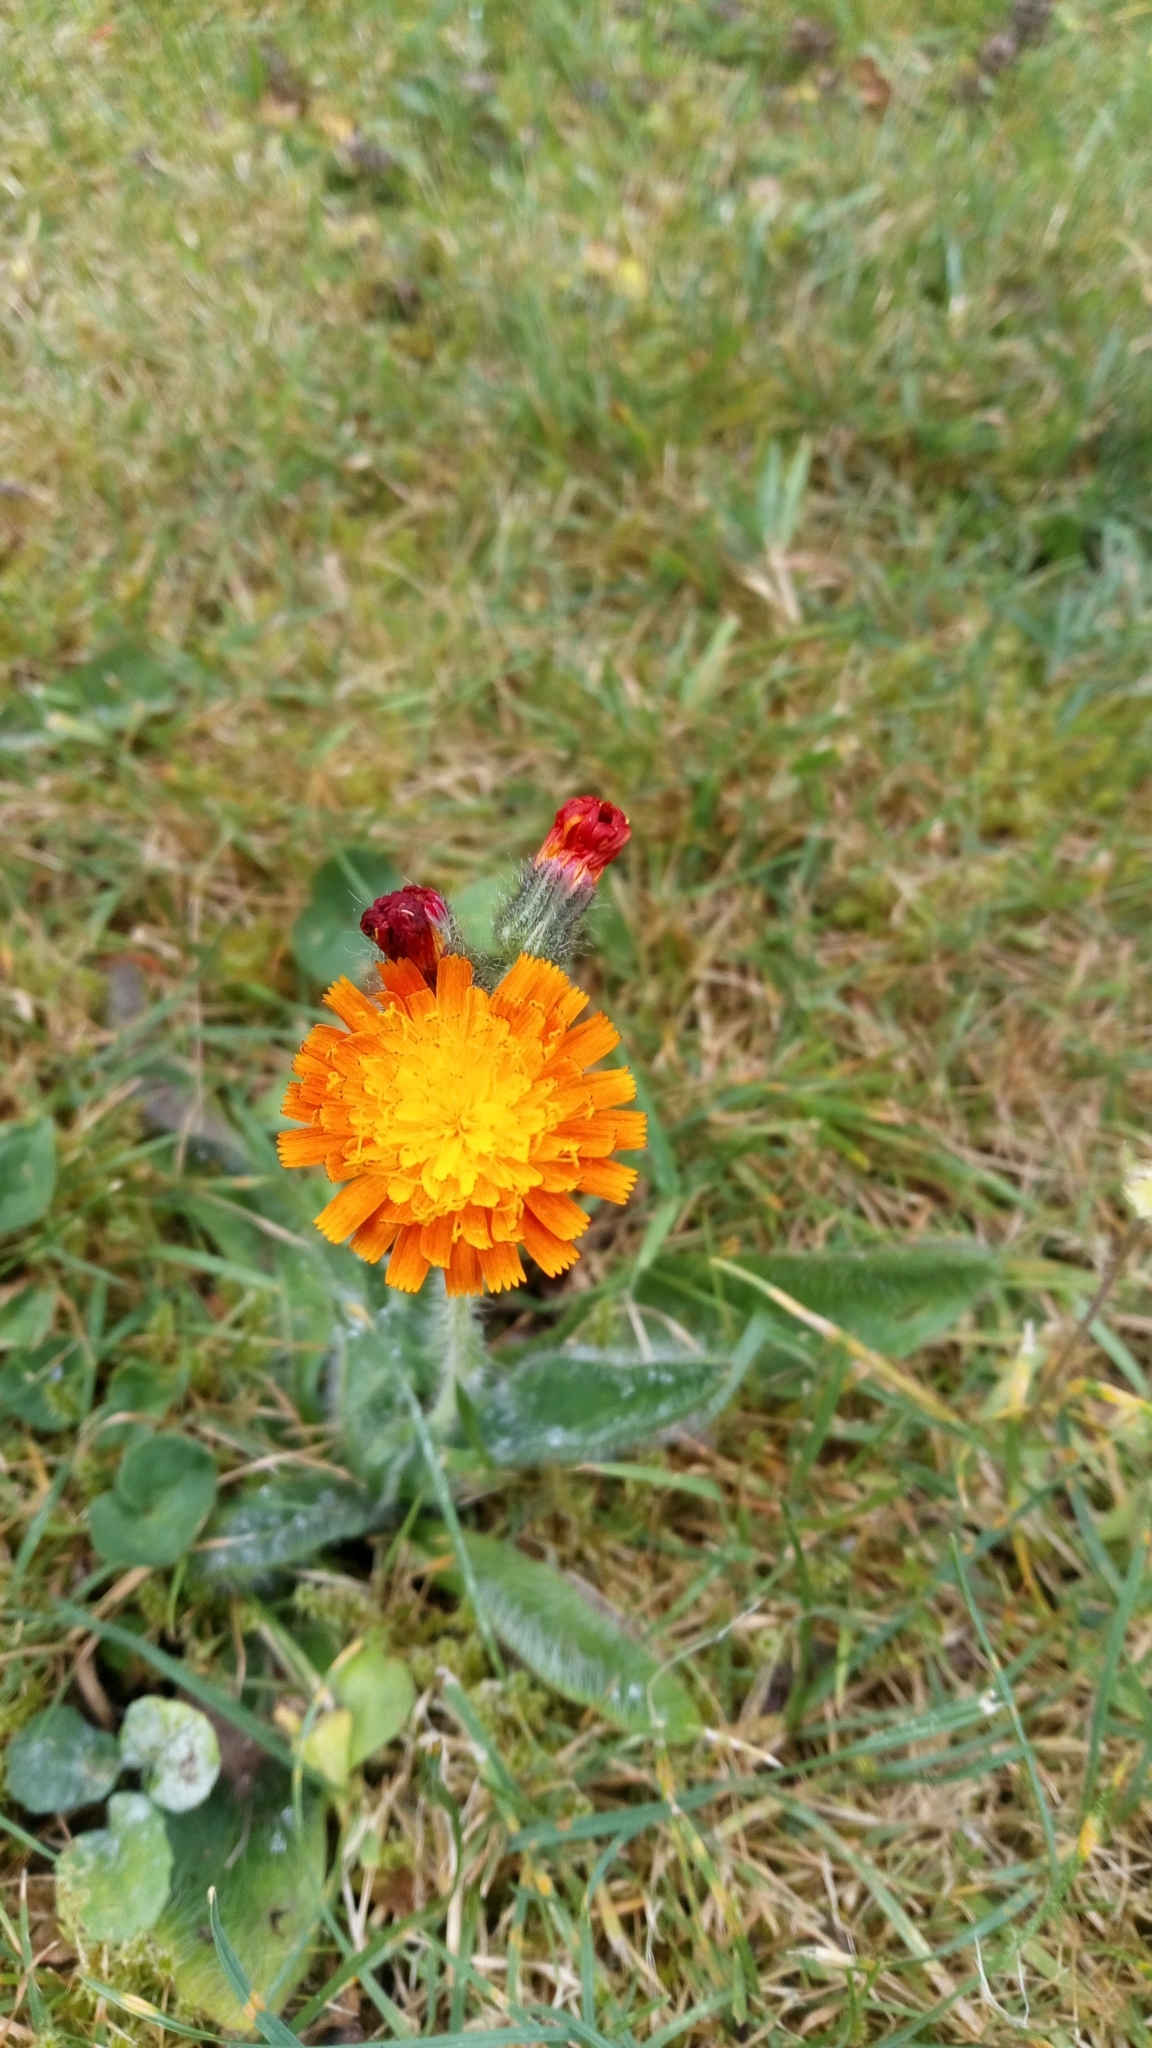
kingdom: Plantae
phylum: Tracheophyta
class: Magnoliopsida
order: Asterales
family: Asteraceae
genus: Pilosella
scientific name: Pilosella aurantiaca
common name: Fox-and-cubs
